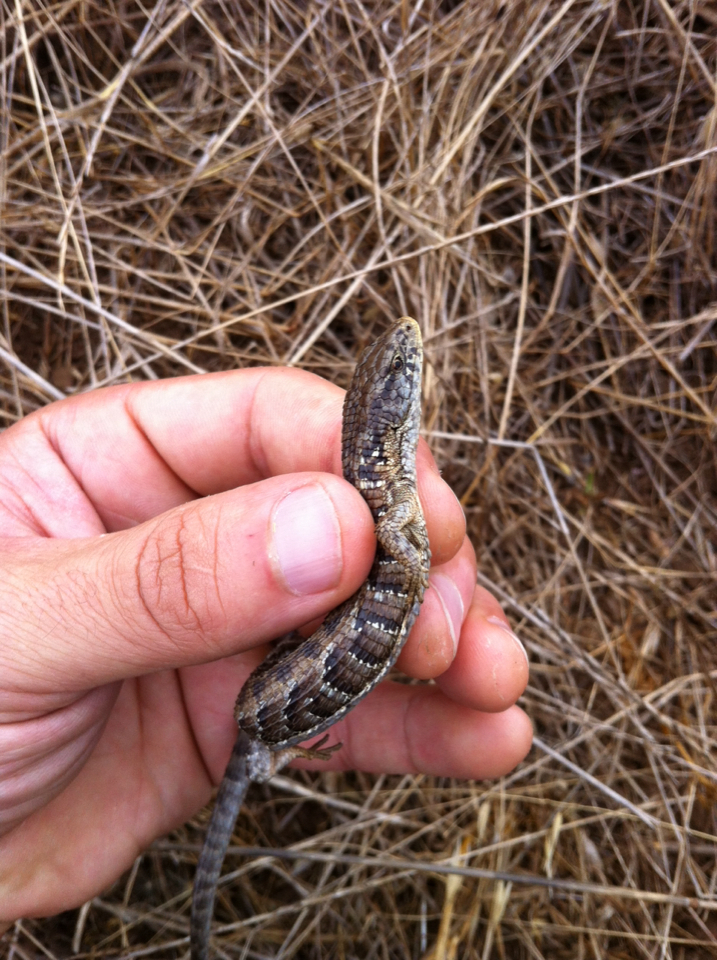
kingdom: Animalia
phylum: Chordata
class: Squamata
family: Anguidae
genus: Elgaria
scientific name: Elgaria coerulea
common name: Northern alligator lizard
